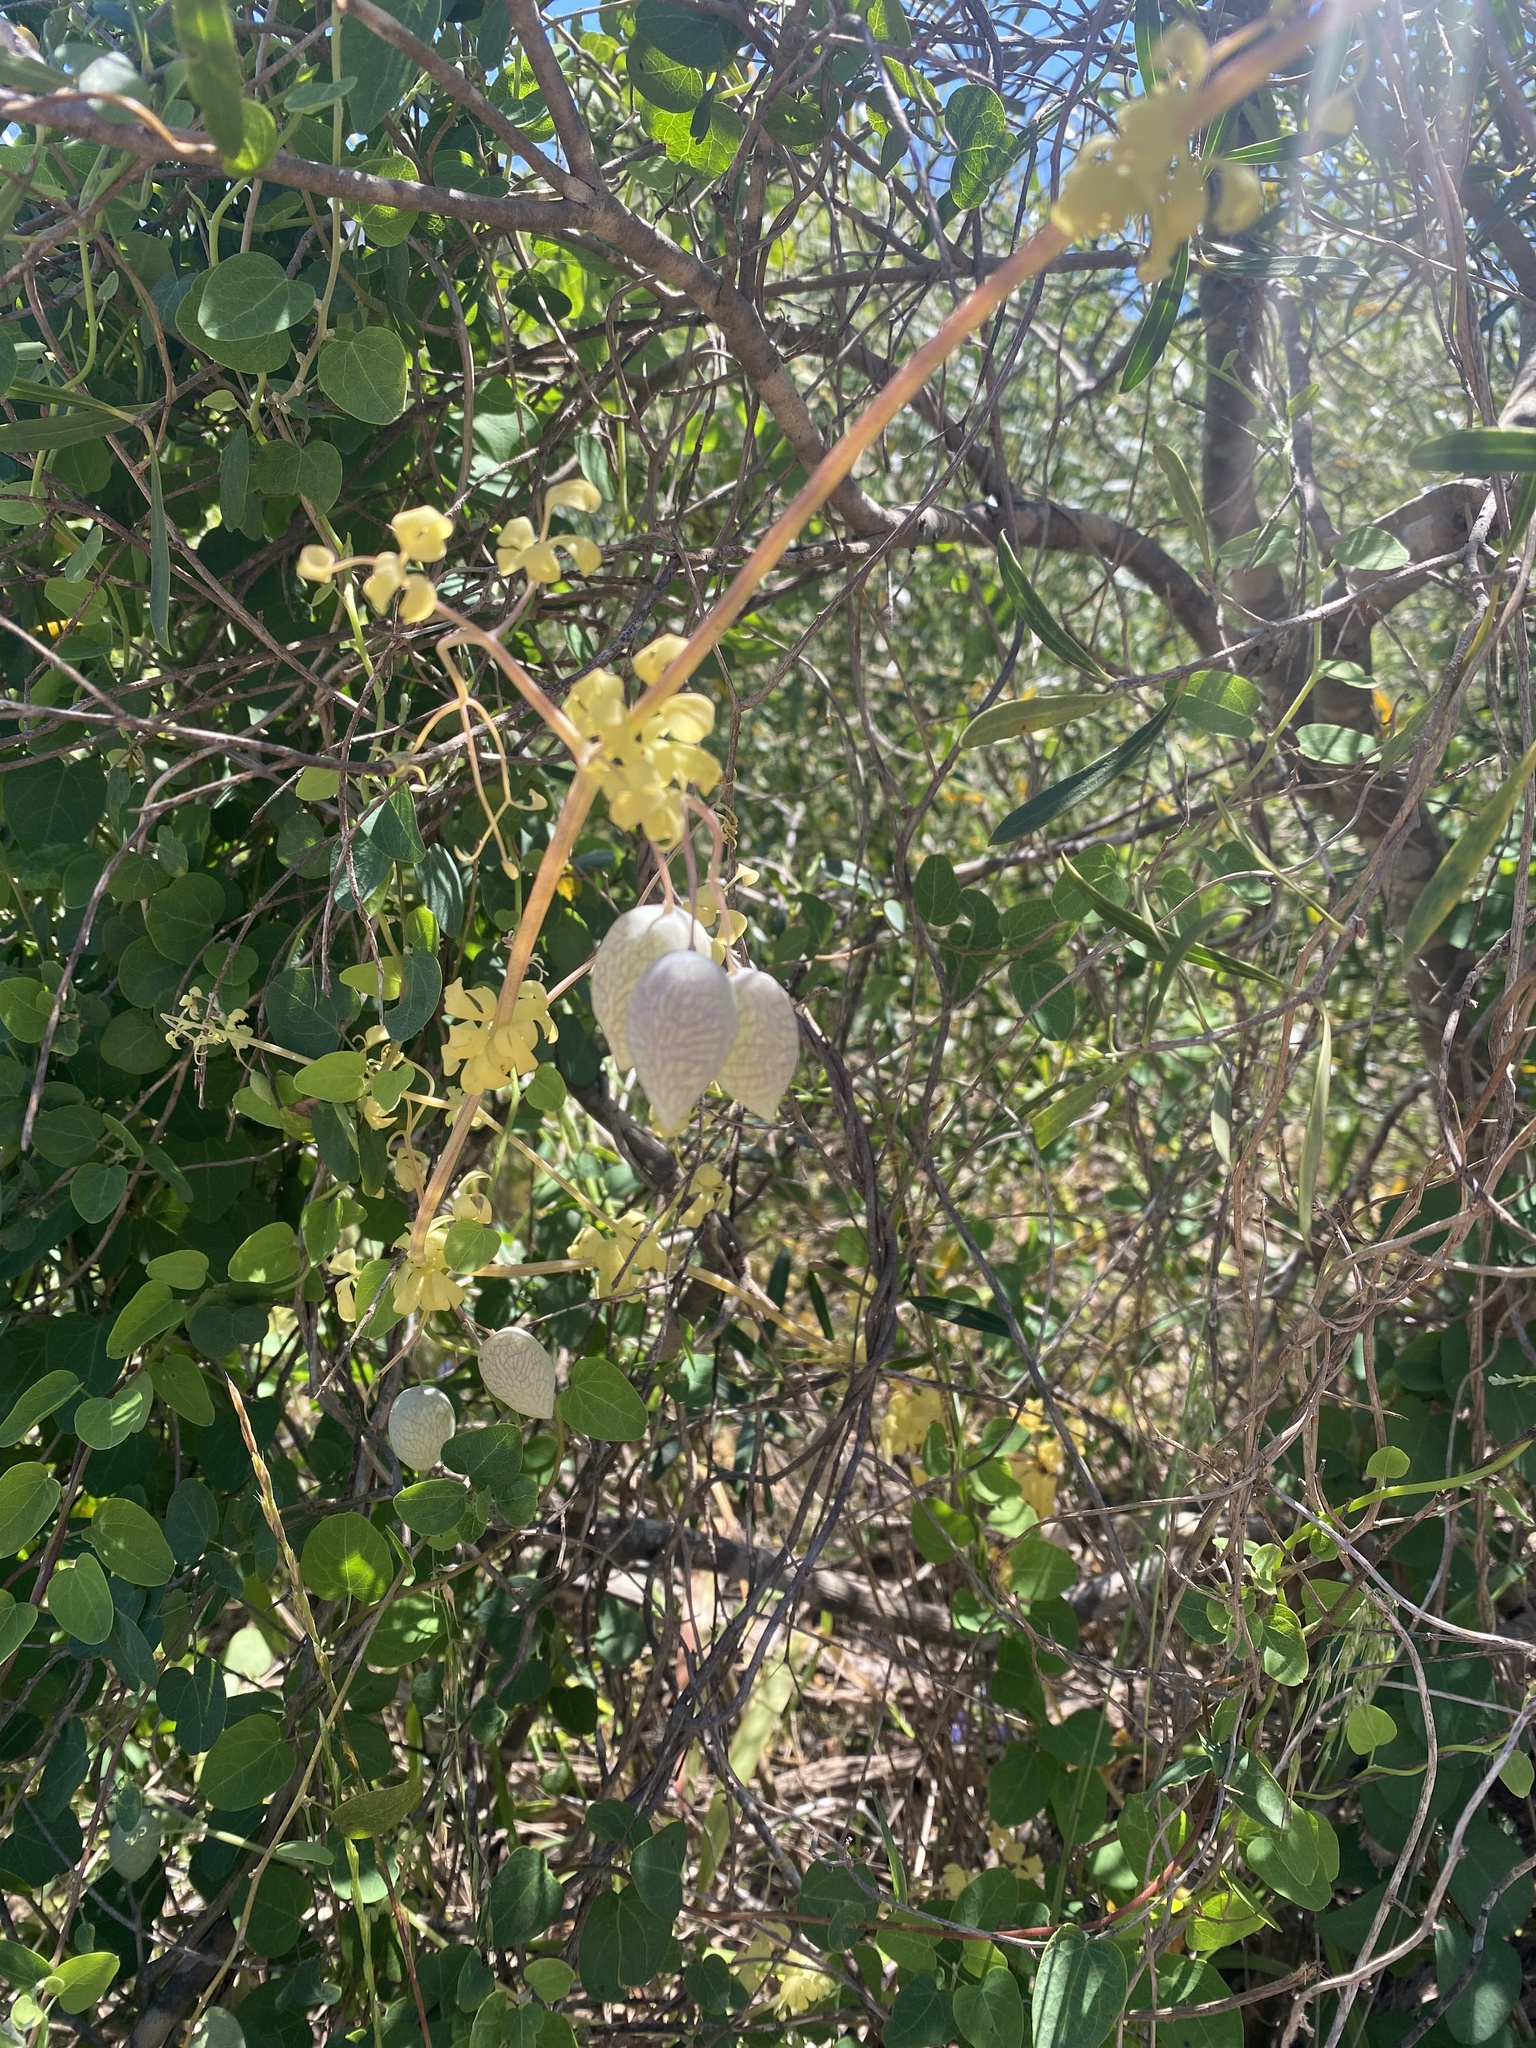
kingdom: Plantae
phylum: Tracheophyta
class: Magnoliopsida
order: Ranunculales
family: Papaveraceae
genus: Cysticapnos
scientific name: Cysticapnos vesicaria
